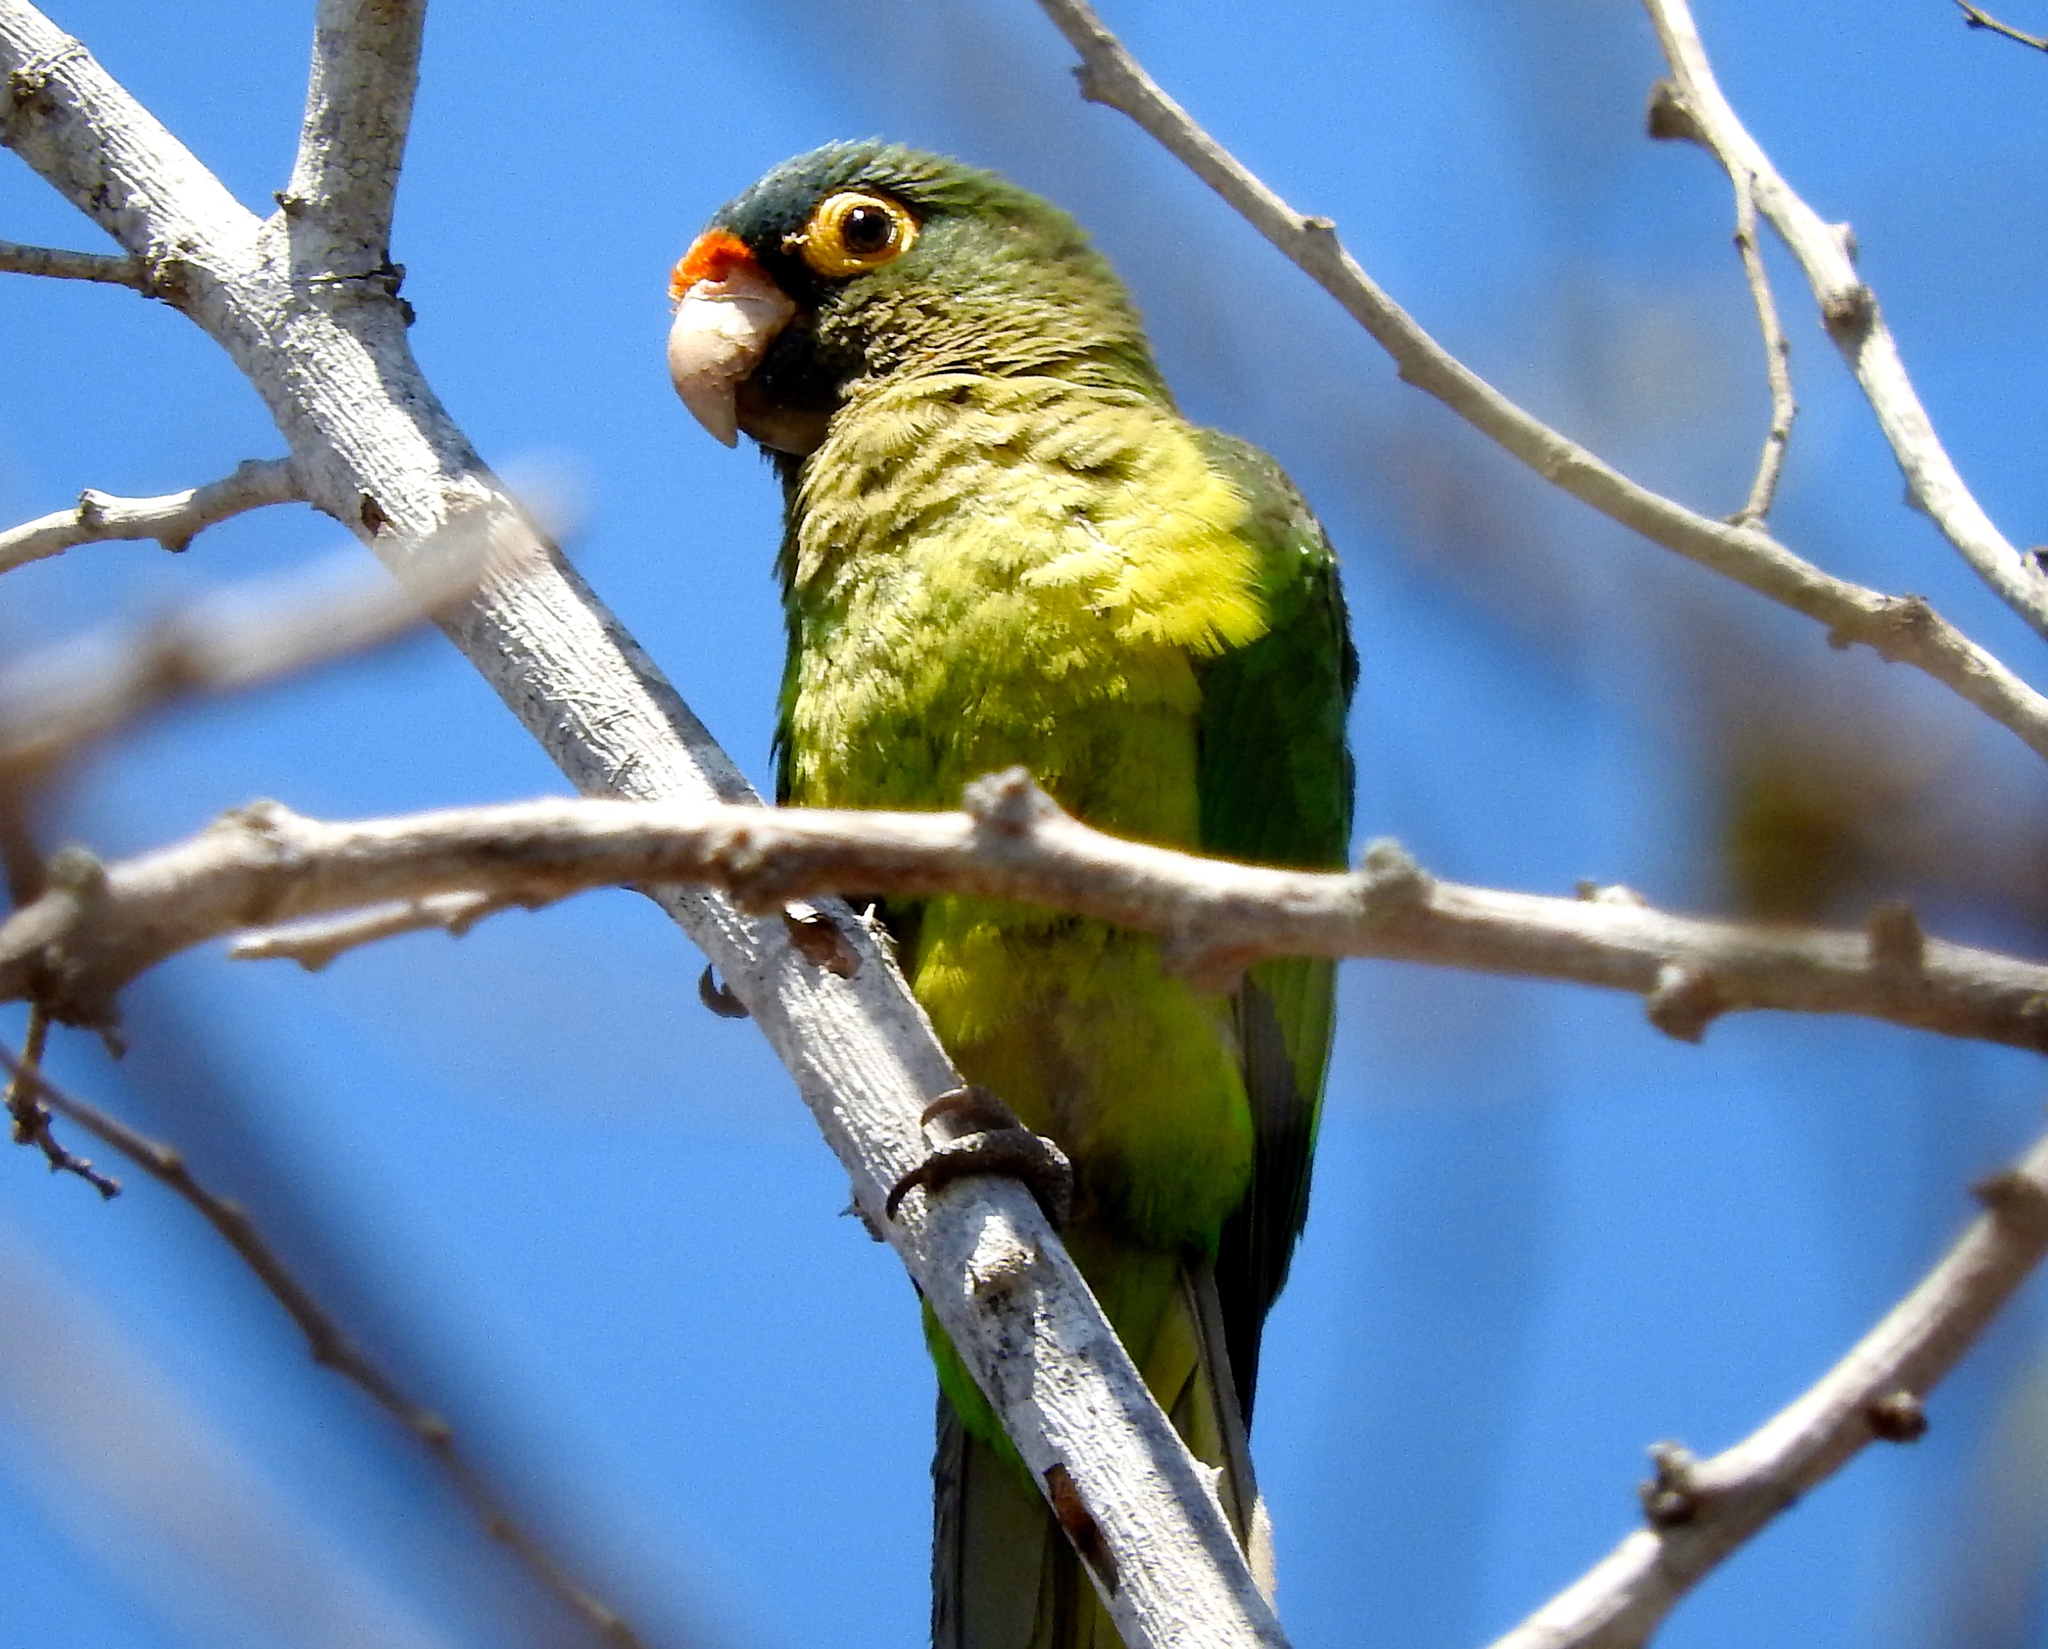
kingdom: Animalia
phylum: Chordata
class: Aves
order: Psittaciformes
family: Psittacidae
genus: Aratinga
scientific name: Aratinga canicularis
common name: Orange-fronted parakeet
